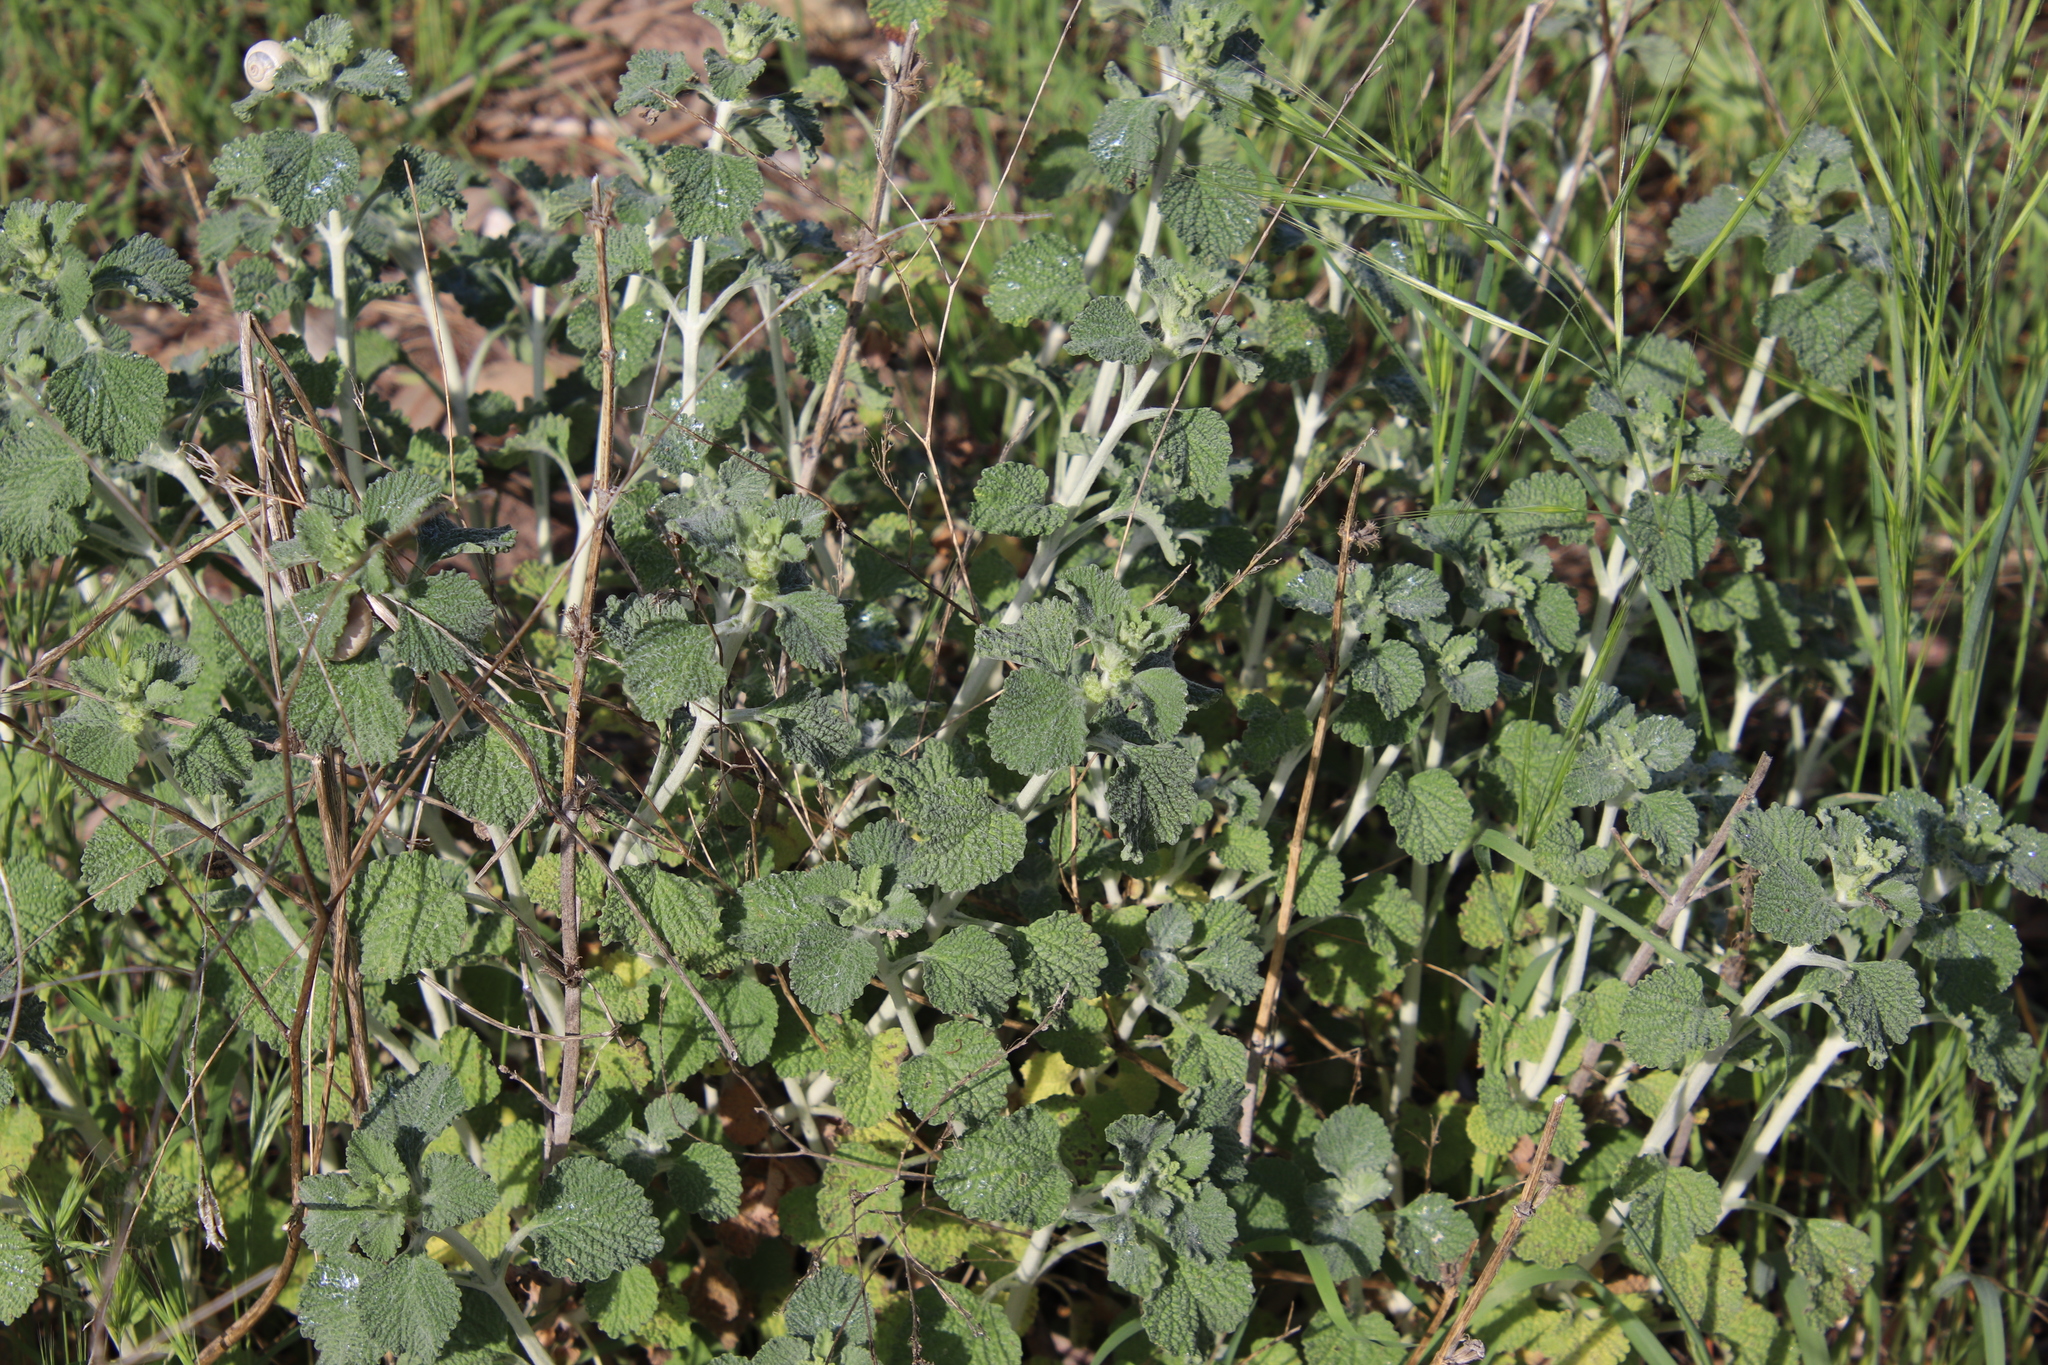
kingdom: Plantae
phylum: Tracheophyta
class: Magnoliopsida
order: Lamiales
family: Lamiaceae
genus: Marrubium
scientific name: Marrubium vulgare
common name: Horehound
